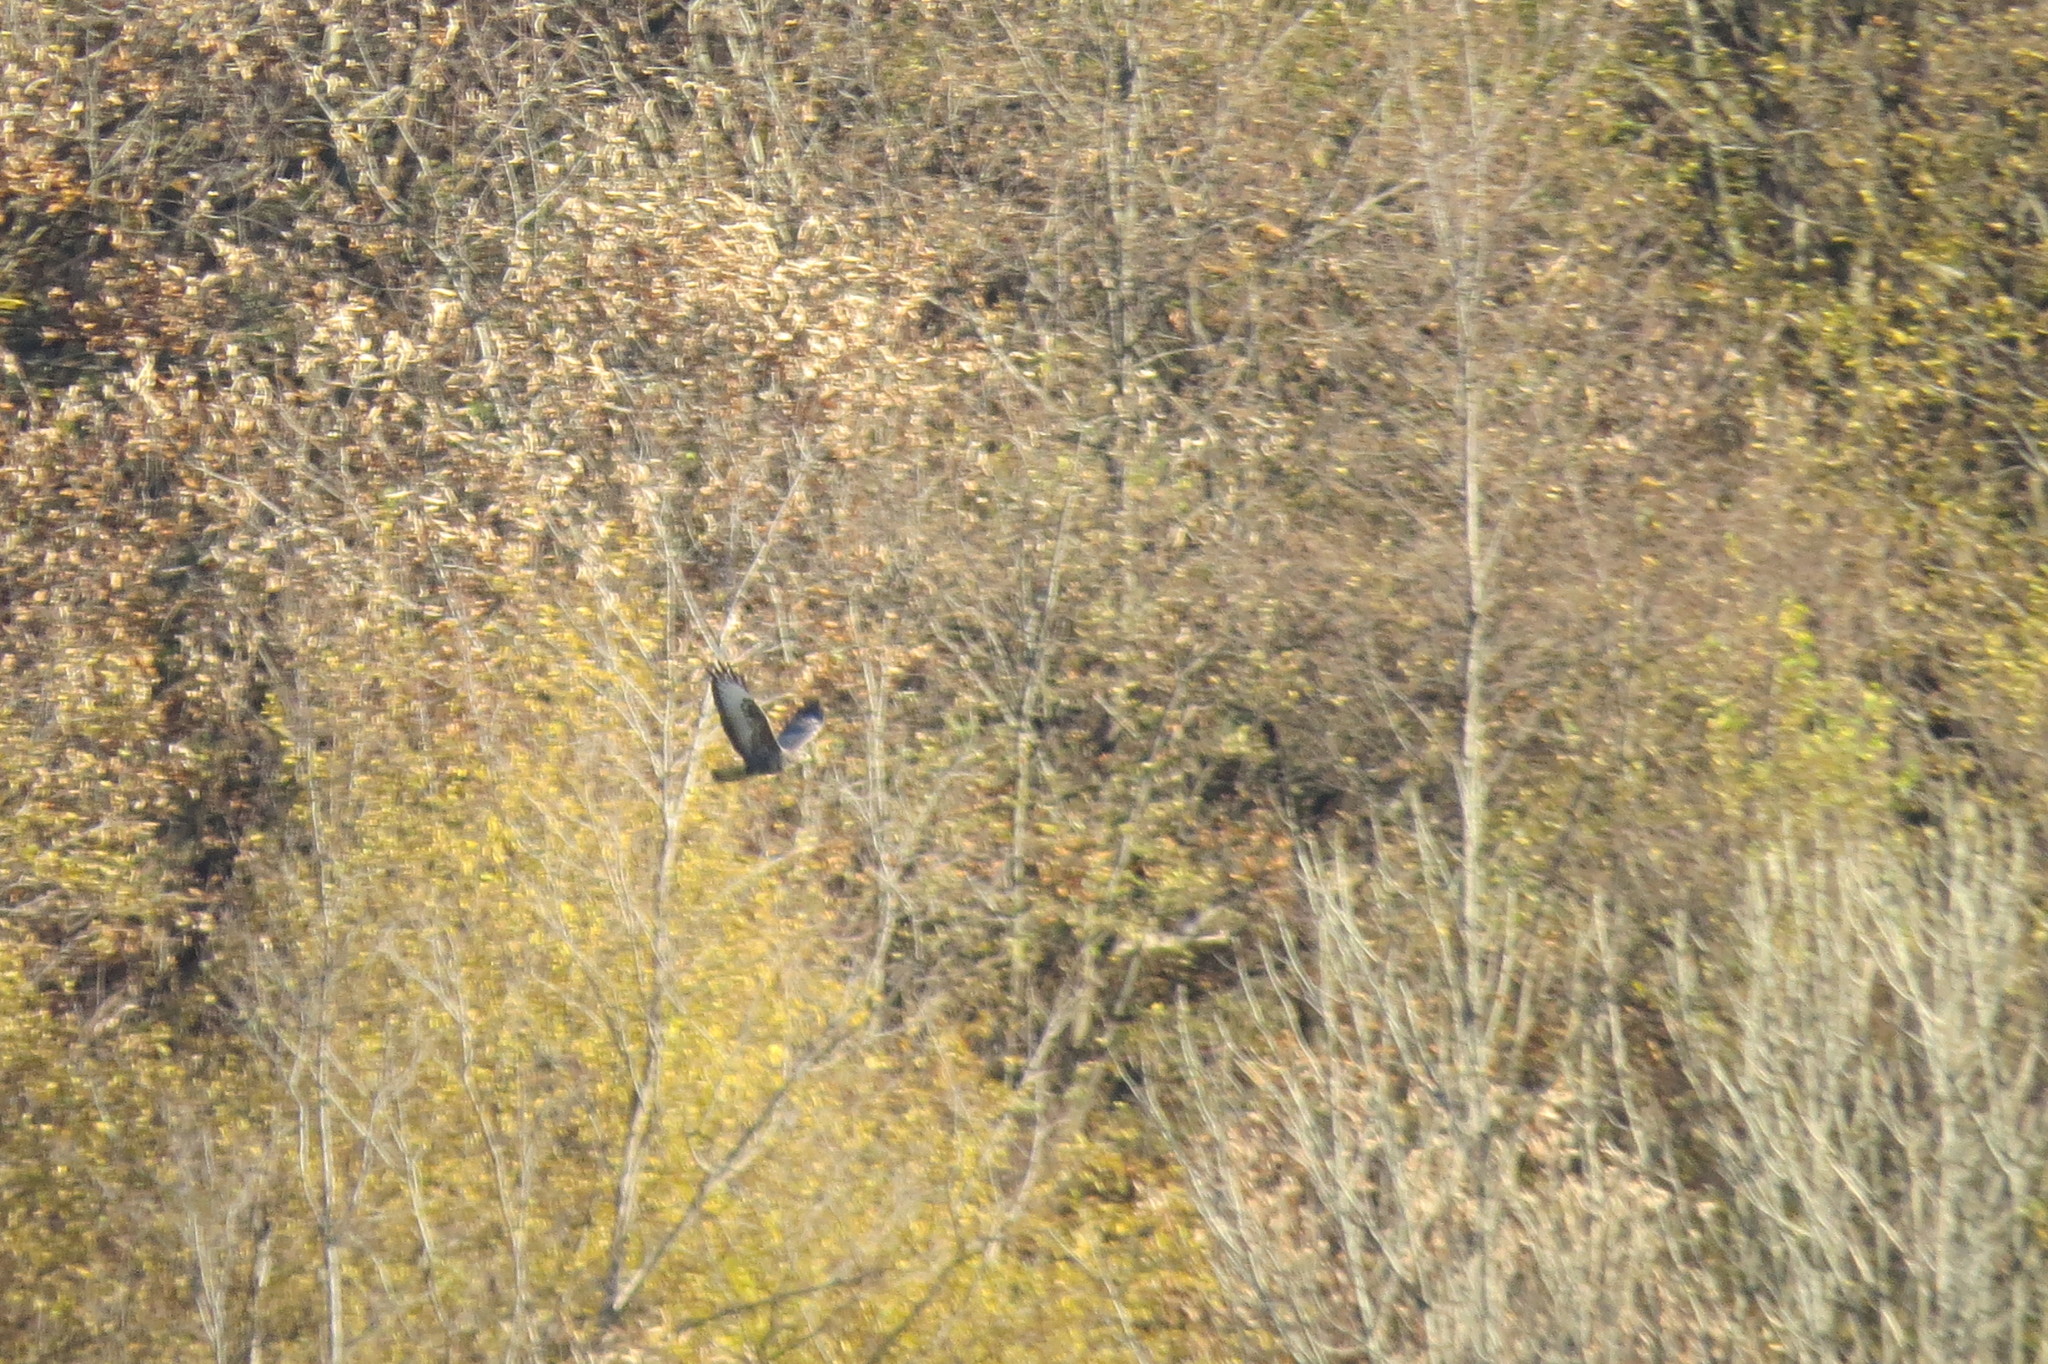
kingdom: Animalia
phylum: Chordata
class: Aves
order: Accipitriformes
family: Accipitridae
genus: Buteo
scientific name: Buteo buteo
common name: Common buzzard
